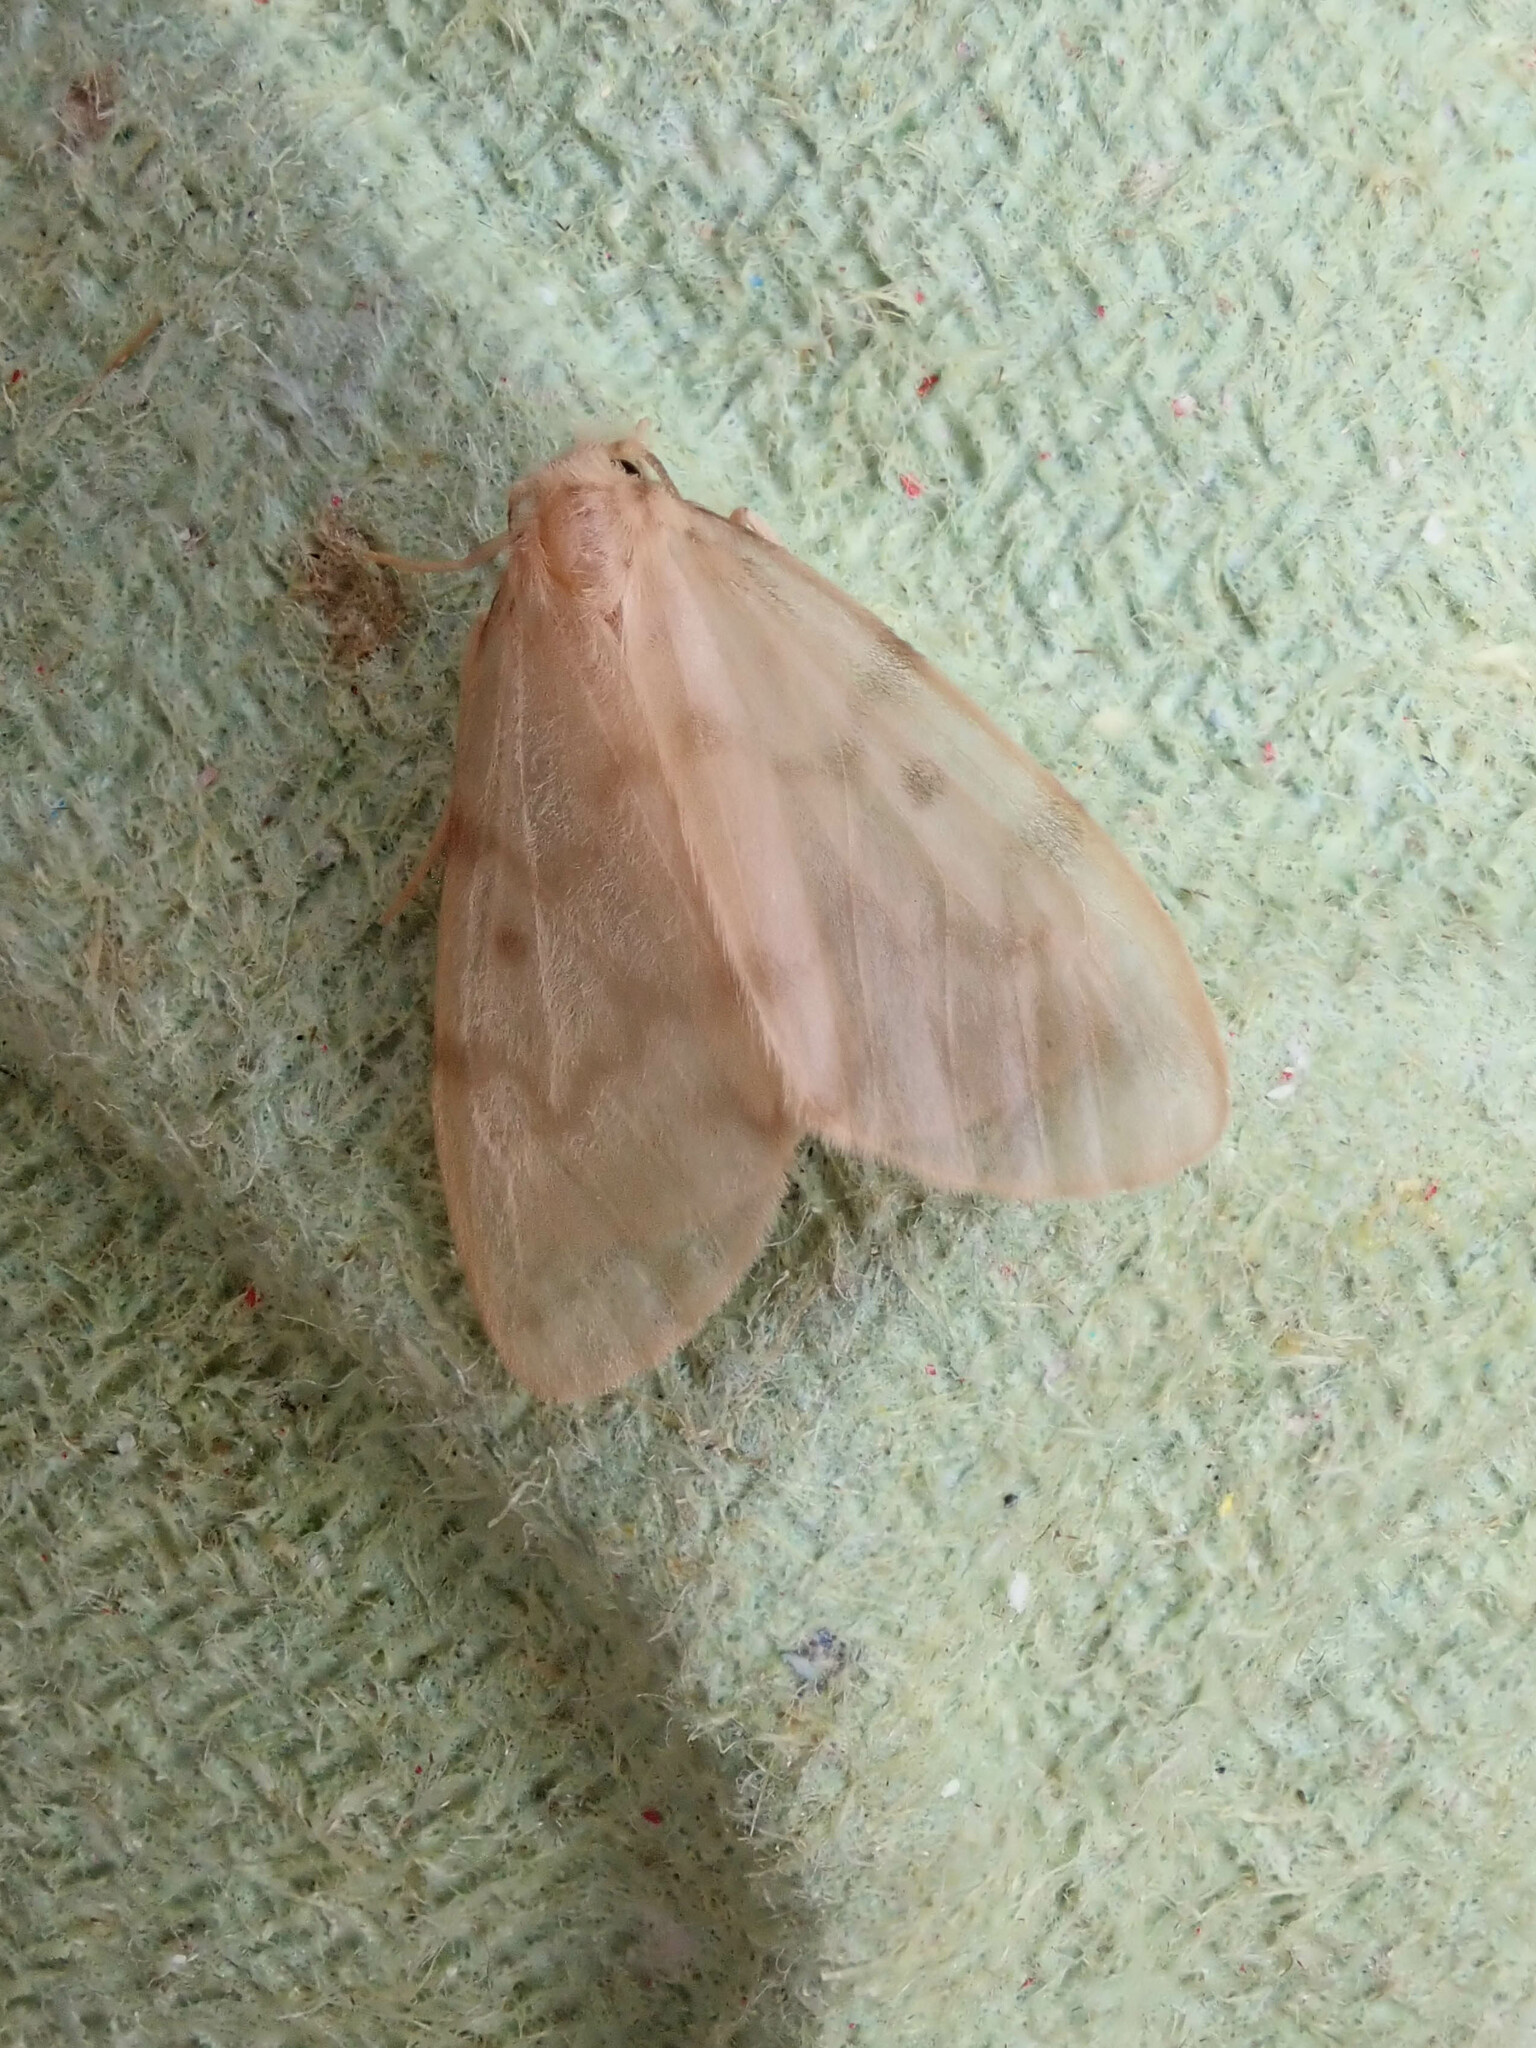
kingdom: Animalia
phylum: Arthropoda
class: Insecta
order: Lepidoptera
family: Erebidae
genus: Nudaria
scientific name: Nudaria mundana
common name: Muslin footman
